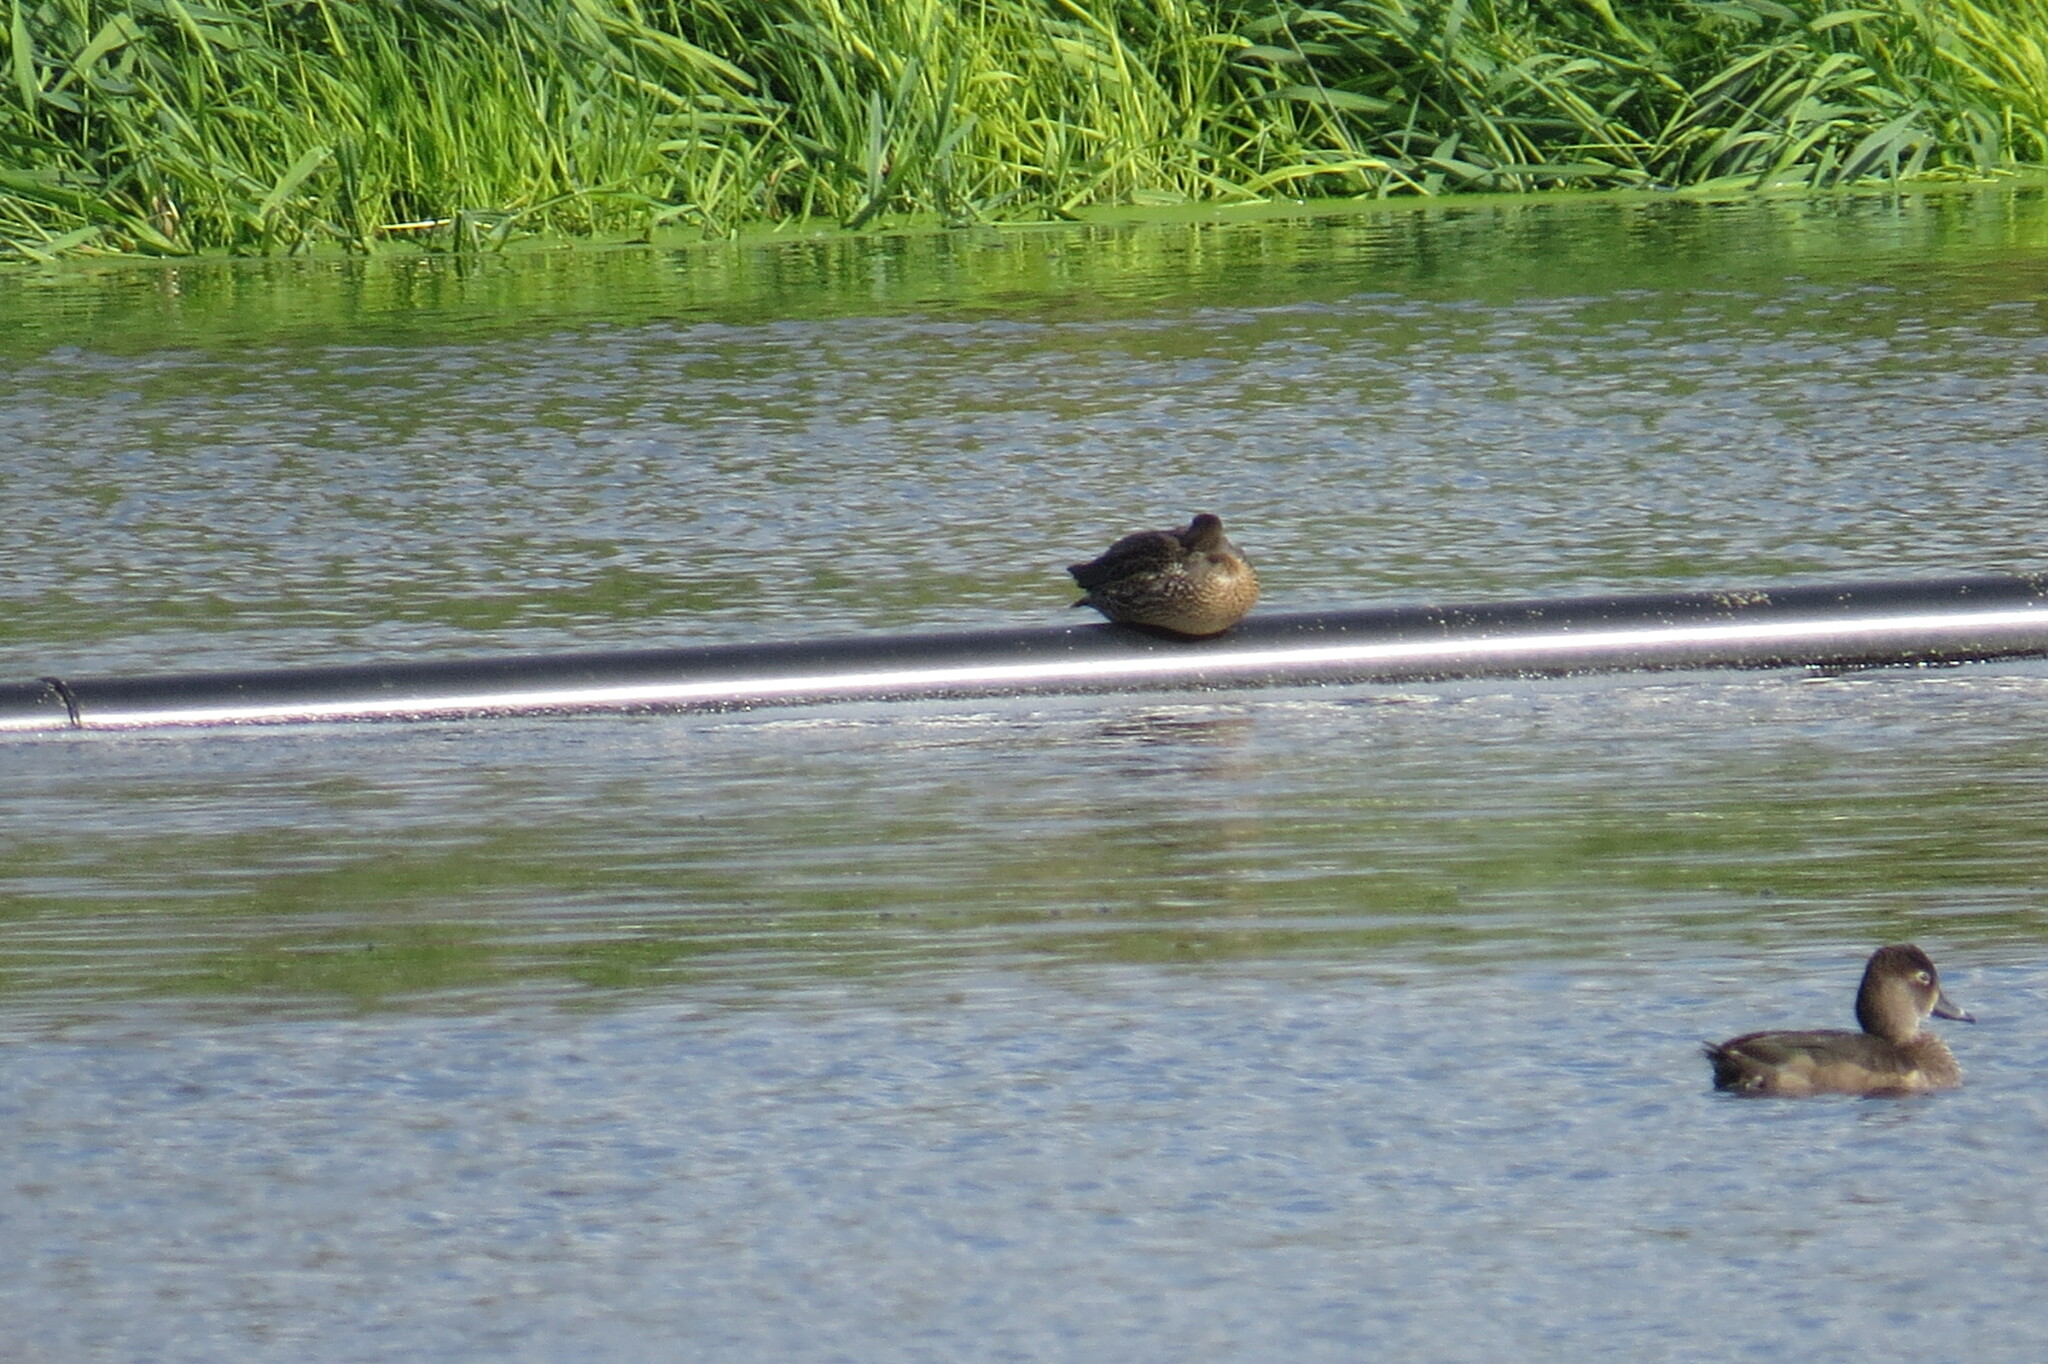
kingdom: Animalia
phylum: Chordata
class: Aves
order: Anseriformes
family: Anatidae
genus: Aythya
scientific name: Aythya collaris
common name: Ring-necked duck
